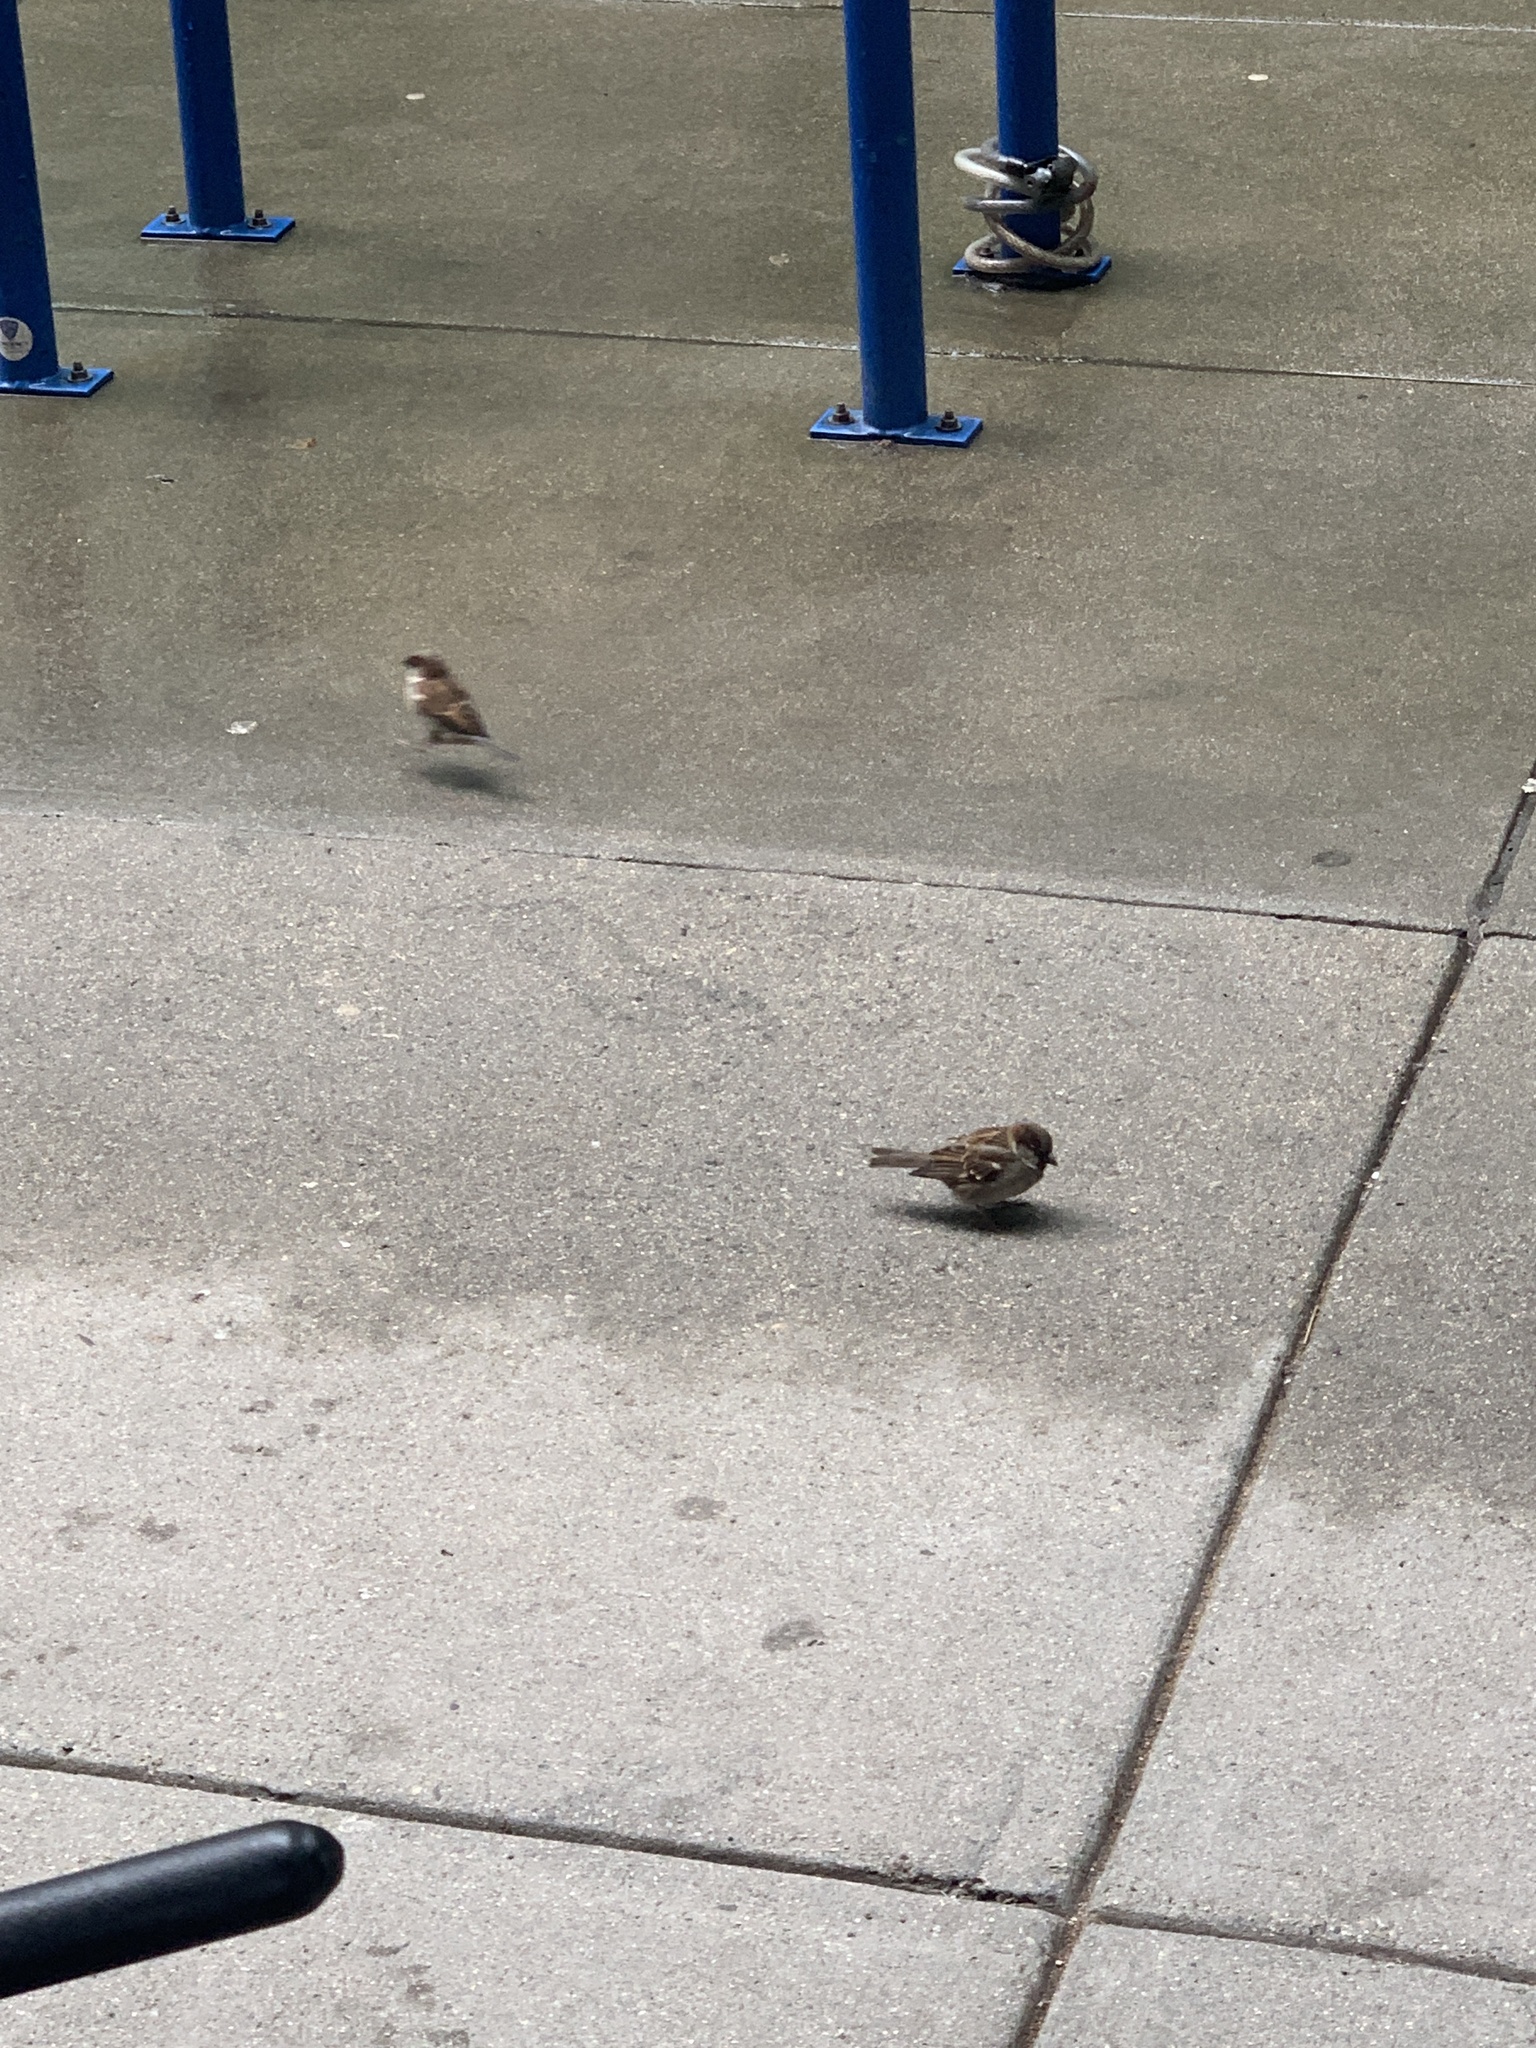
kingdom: Animalia
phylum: Chordata
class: Aves
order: Passeriformes
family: Passeridae
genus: Passer
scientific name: Passer domesticus
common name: House sparrow
